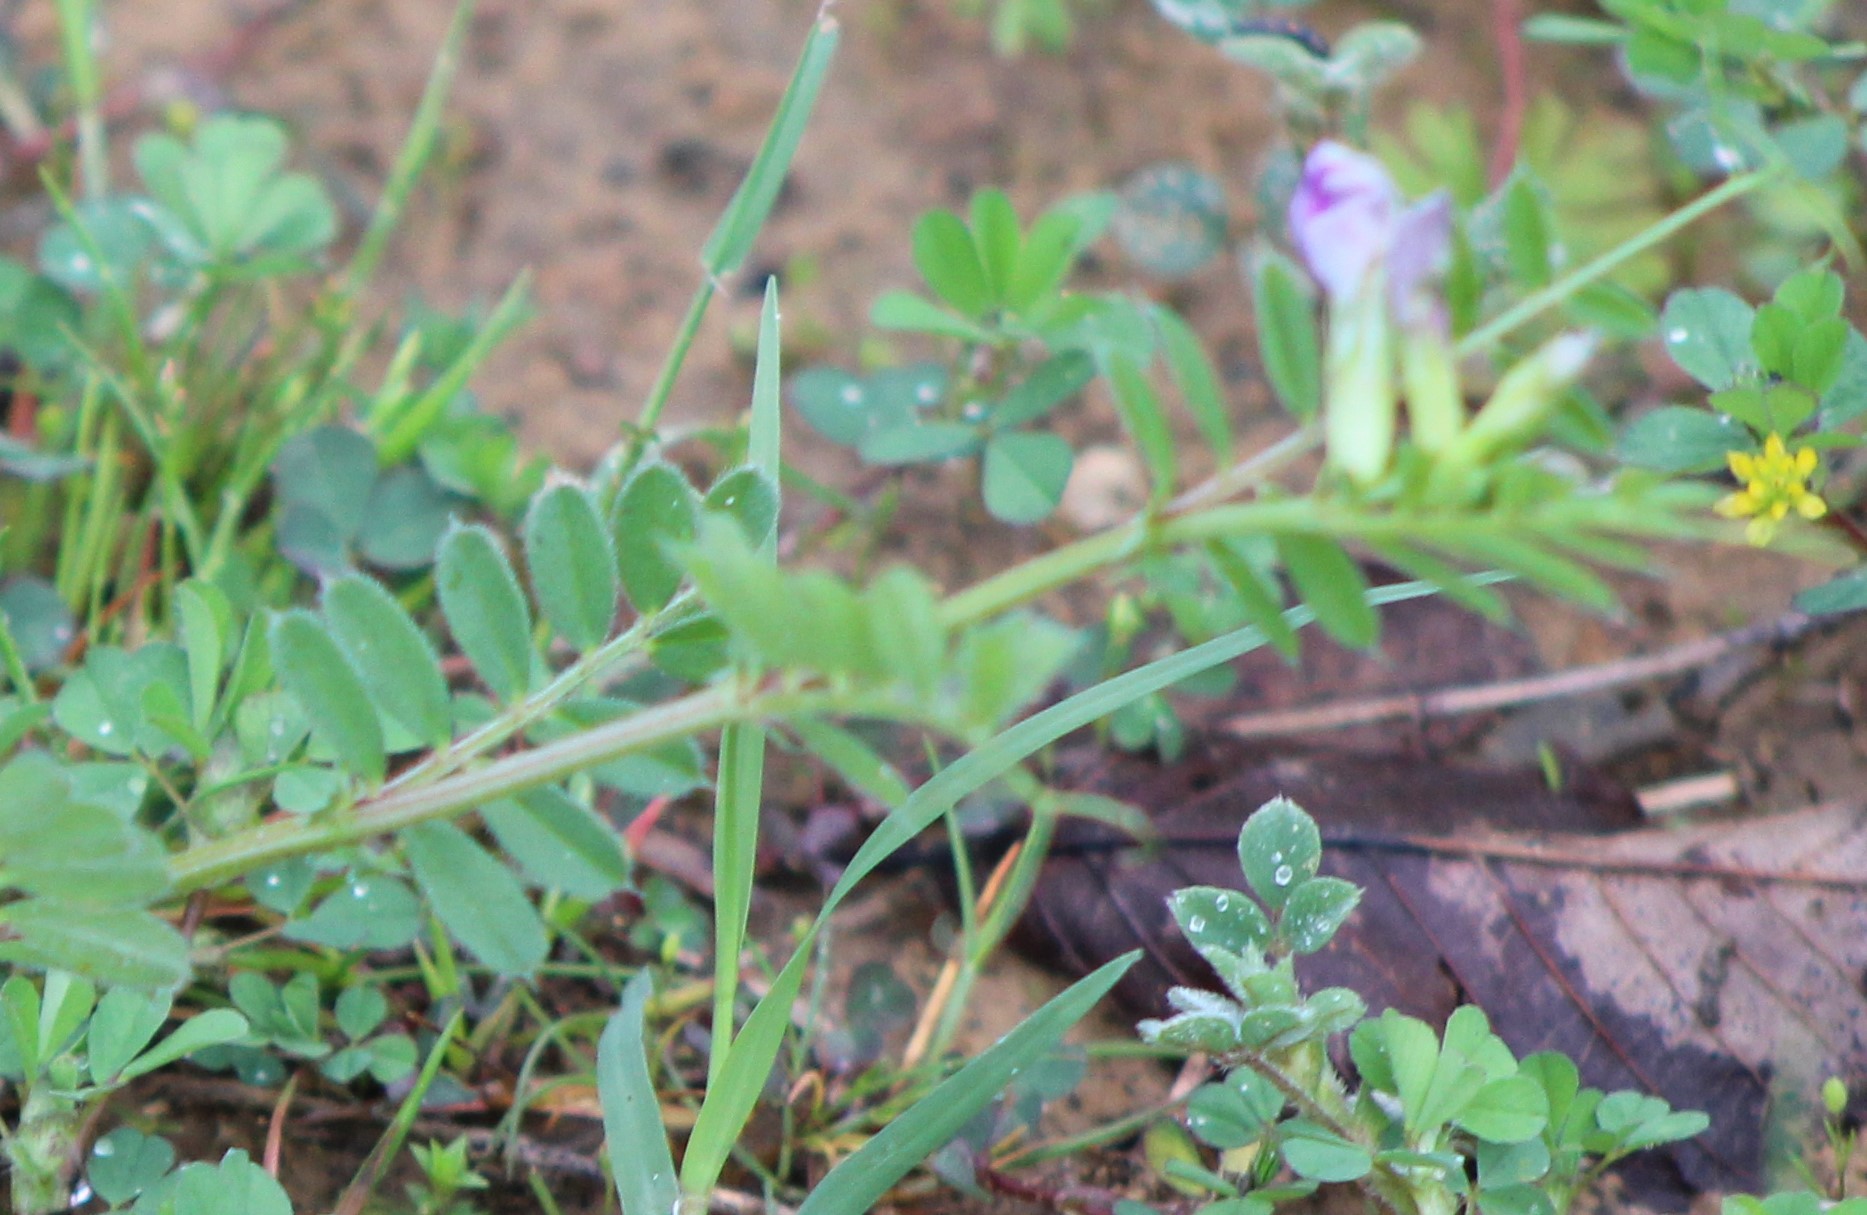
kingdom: Plantae
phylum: Tracheophyta
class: Magnoliopsida
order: Fabales
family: Fabaceae
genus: Vicia
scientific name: Vicia sativa
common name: Garden vetch
